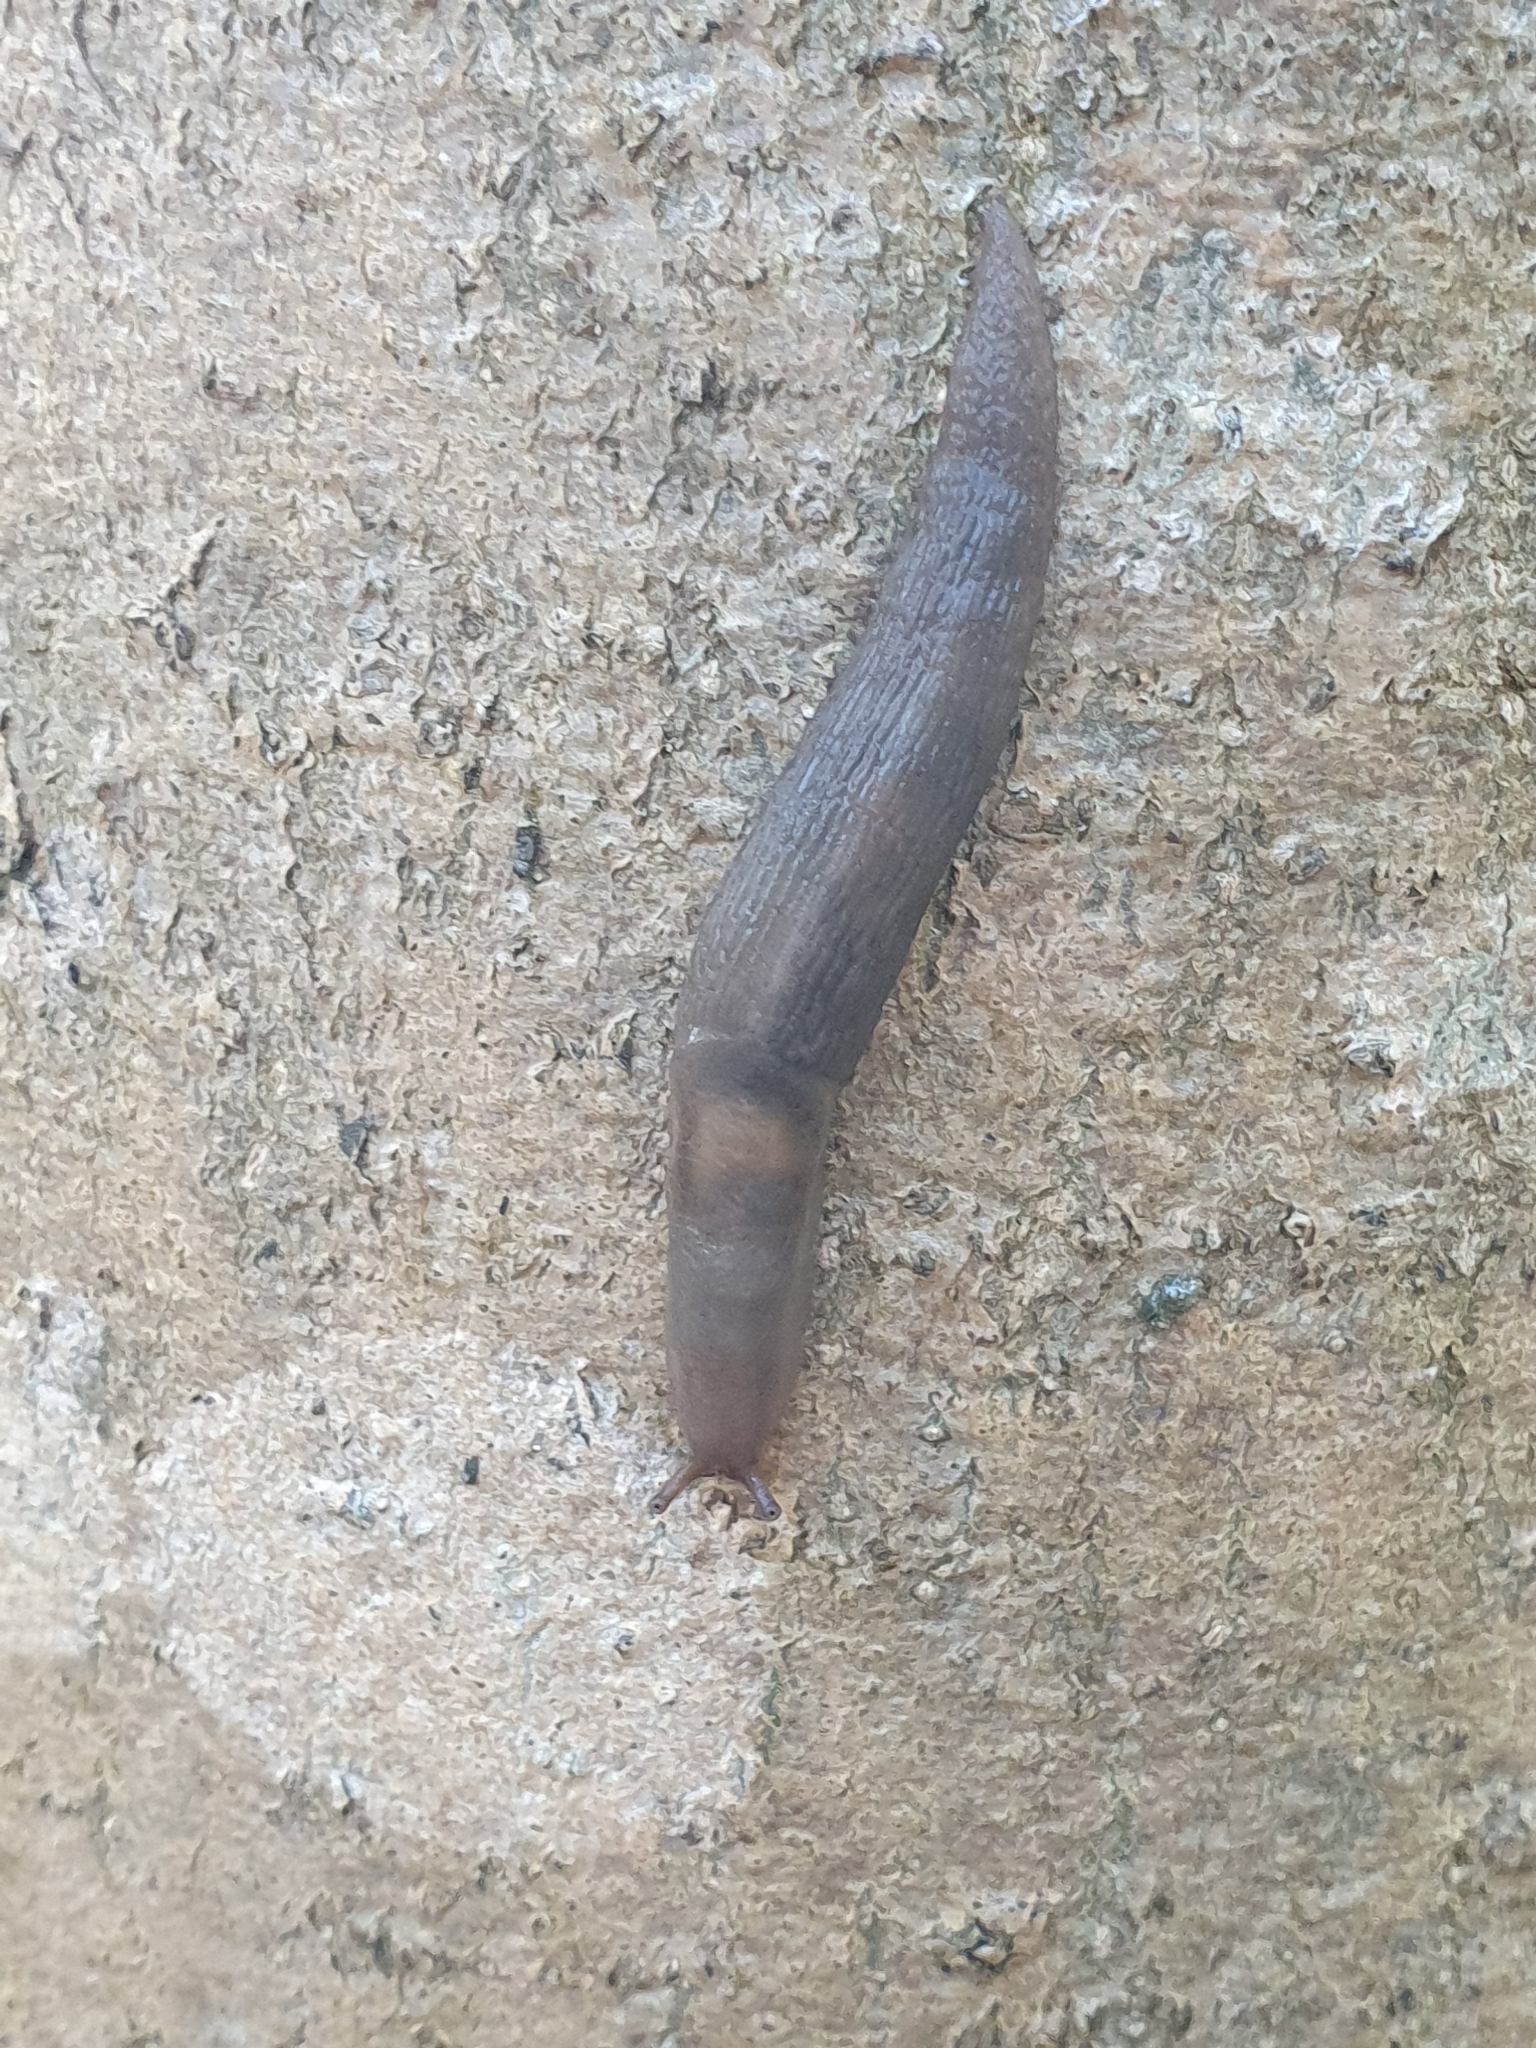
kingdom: Animalia
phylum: Mollusca
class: Gastropoda
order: Stylommatophora
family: Limacidae
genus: Lehmannia
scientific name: Lehmannia marginata
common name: Tree slug
